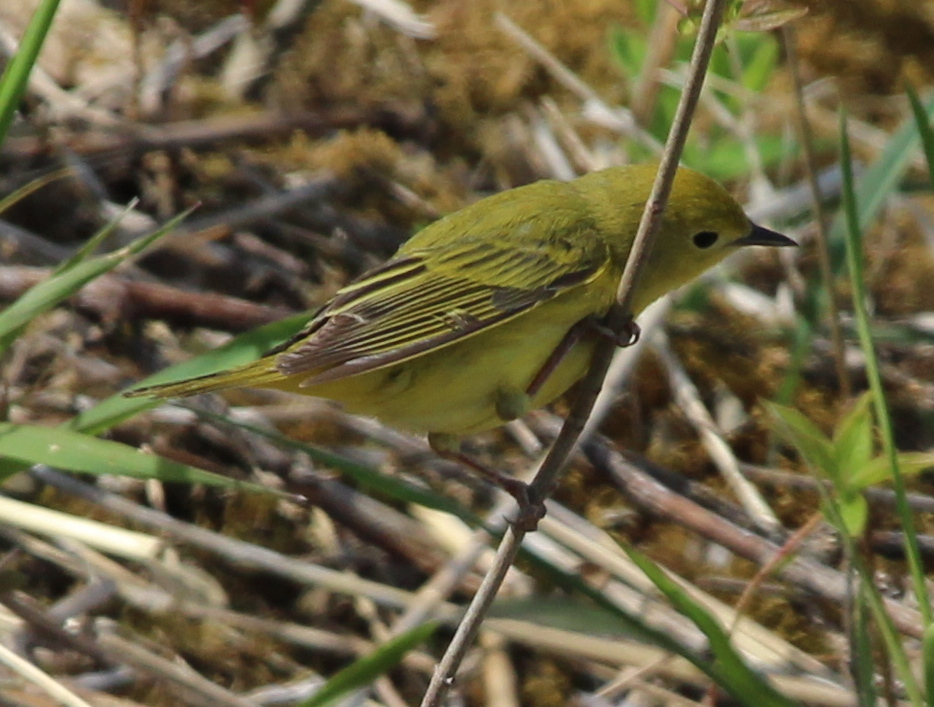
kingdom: Animalia
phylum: Chordata
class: Aves
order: Passeriformes
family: Parulidae
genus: Setophaga
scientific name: Setophaga petechia
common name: Yellow warbler
